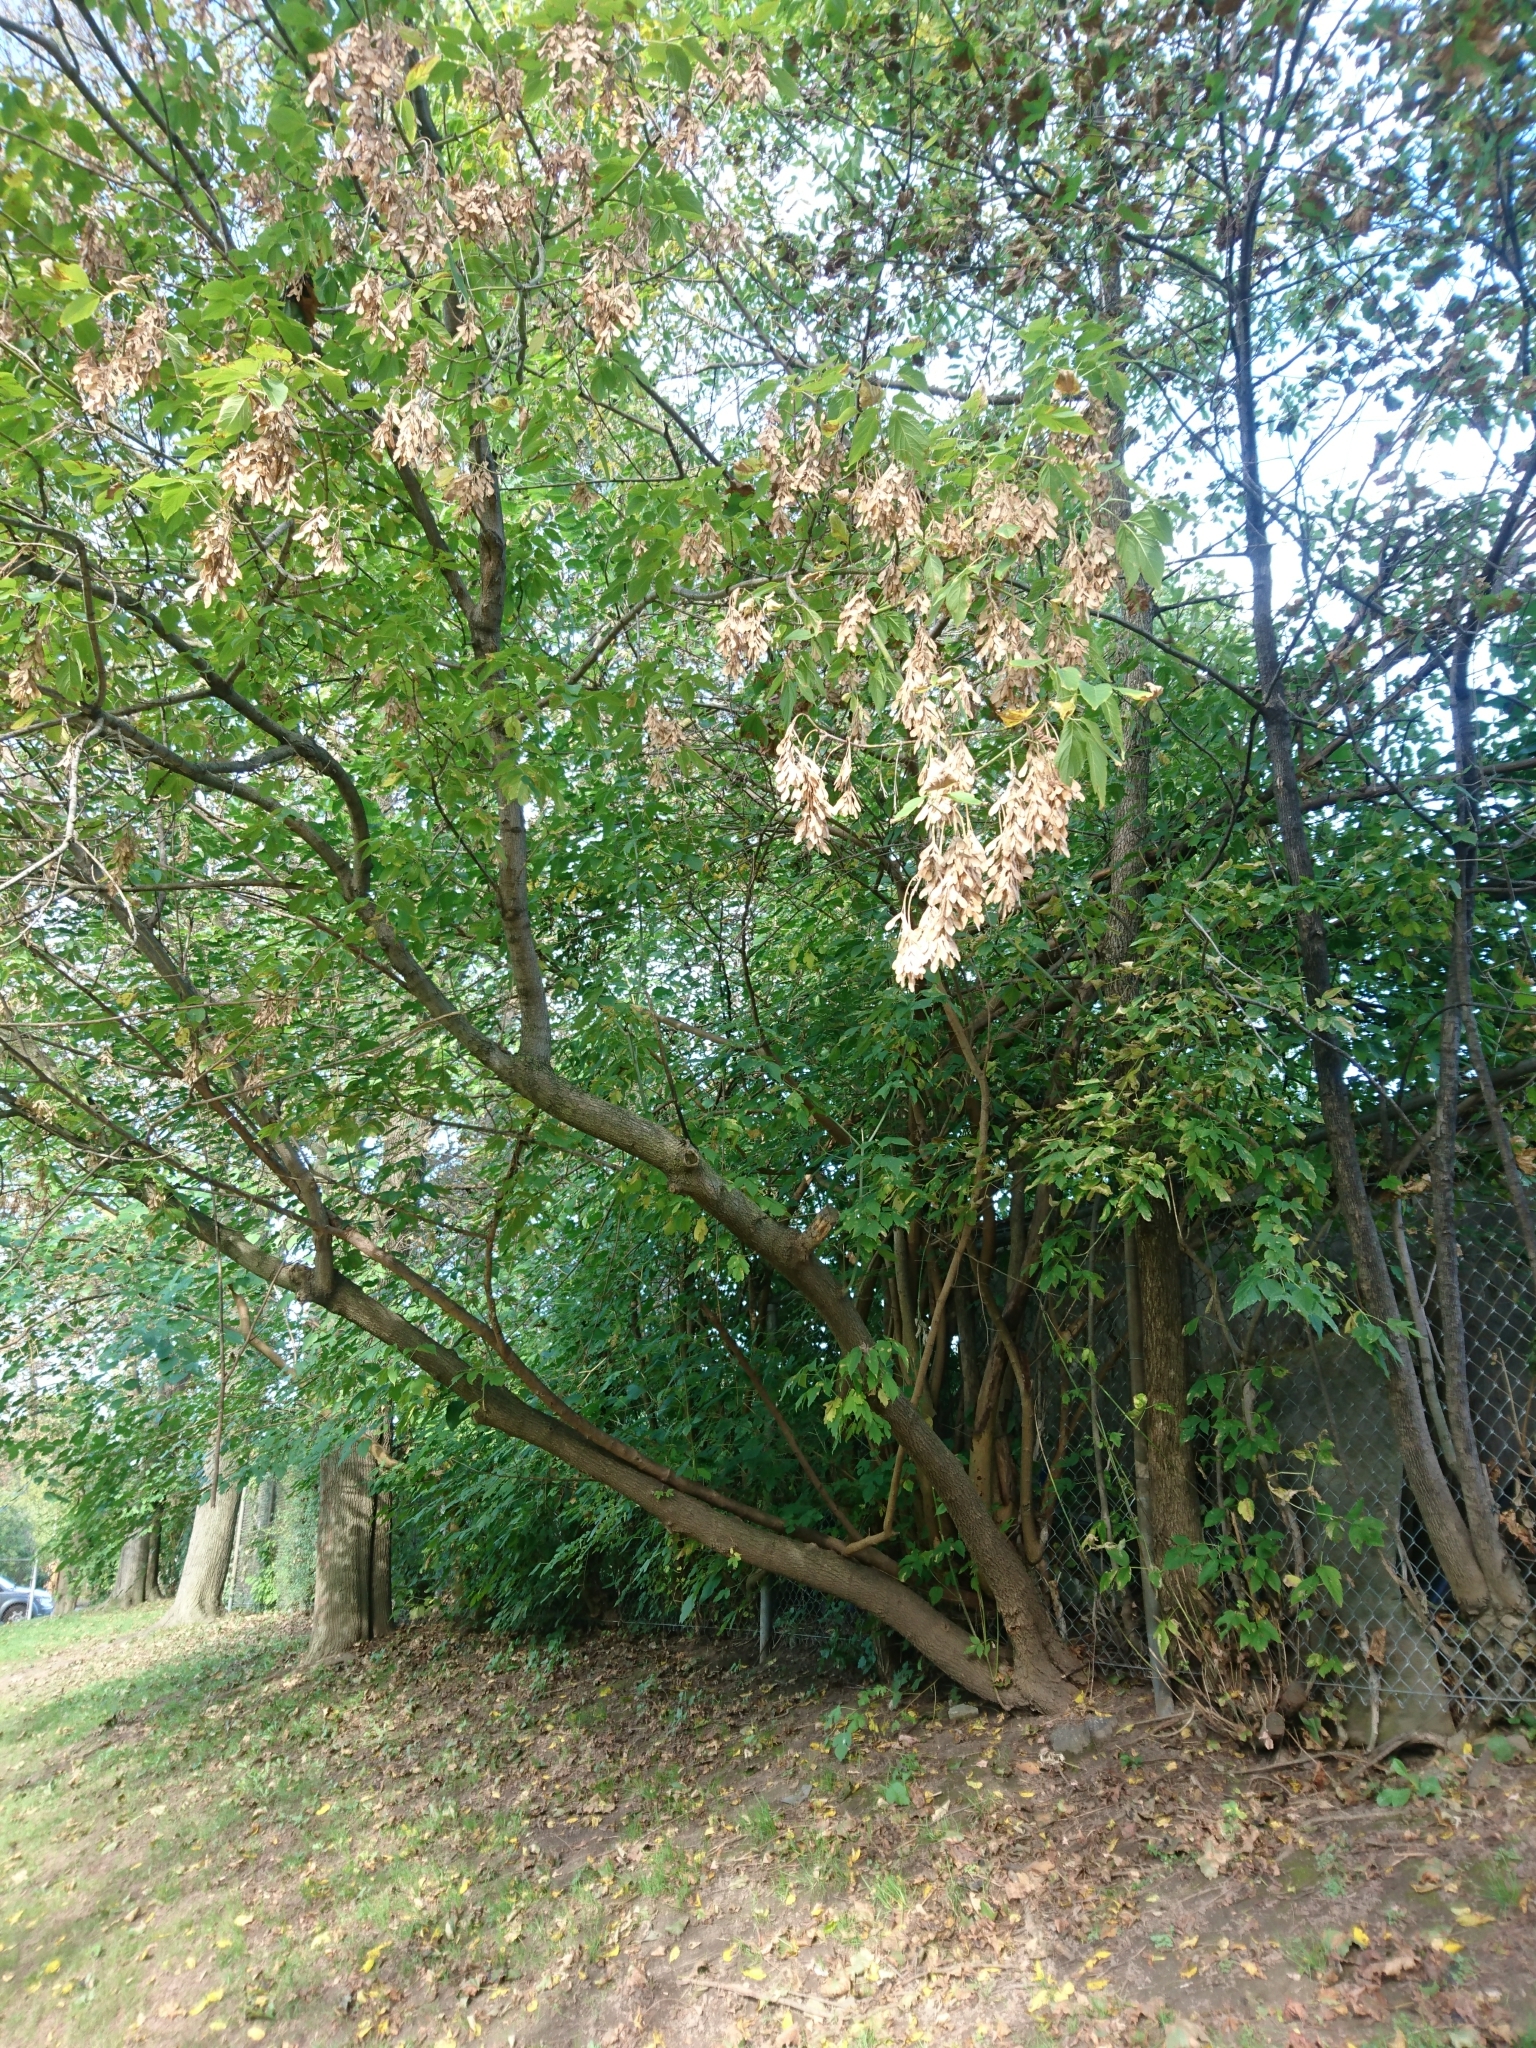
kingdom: Plantae
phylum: Tracheophyta
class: Magnoliopsida
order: Sapindales
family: Sapindaceae
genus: Acer
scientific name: Acer negundo
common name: Ashleaf maple
